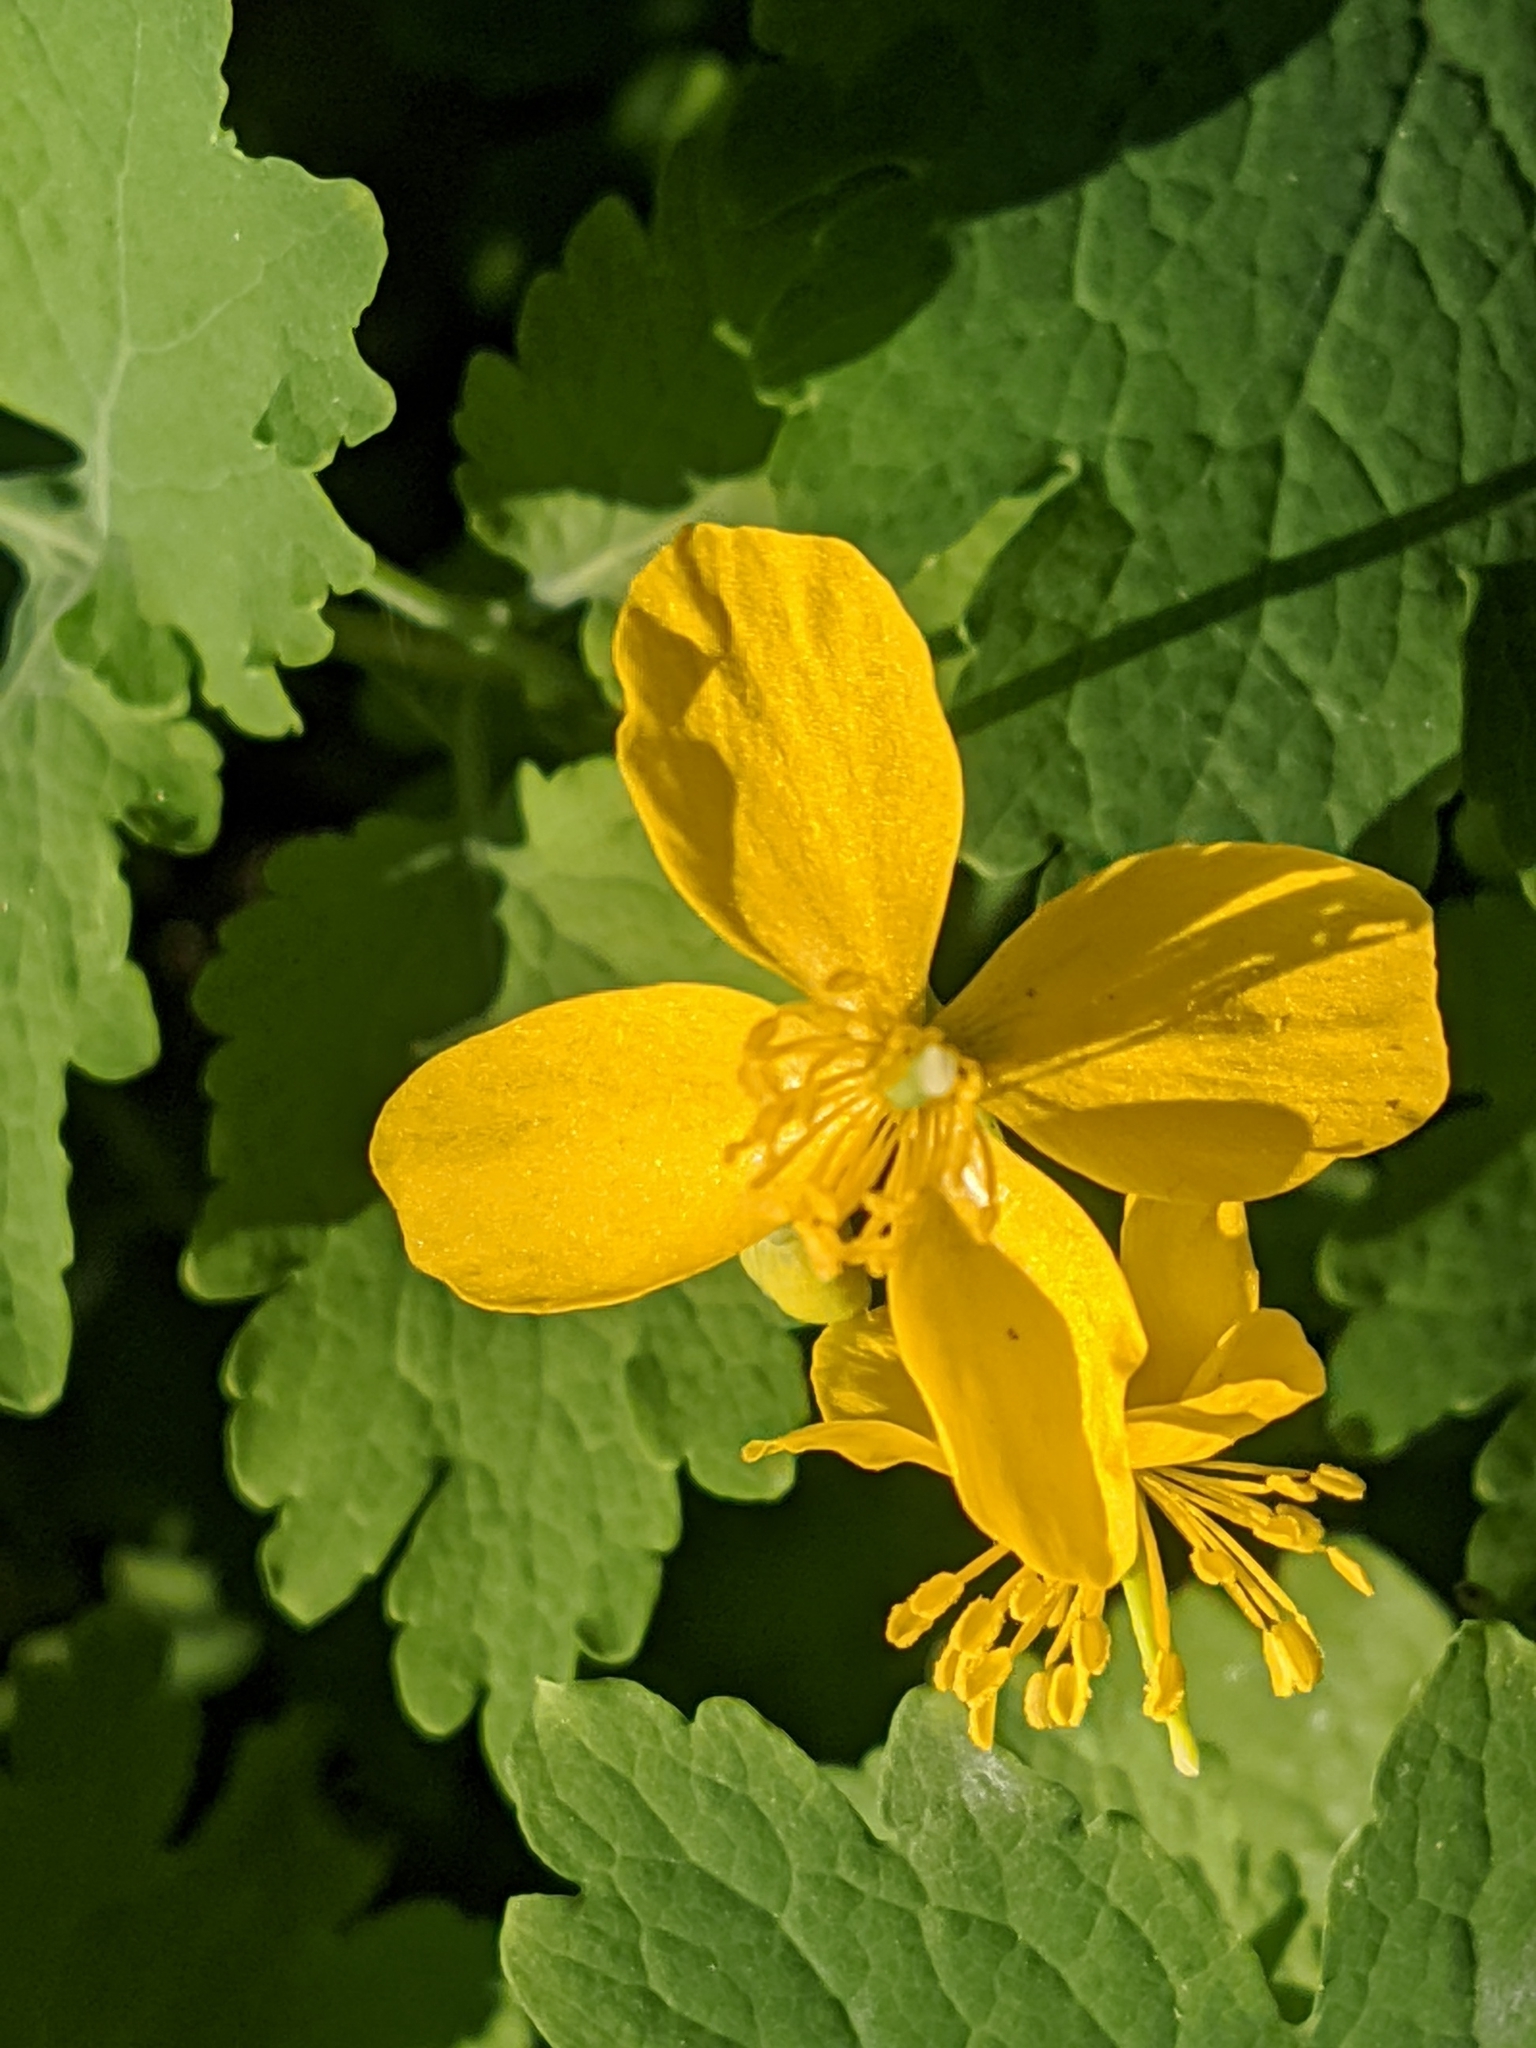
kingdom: Plantae
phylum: Tracheophyta
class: Magnoliopsida
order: Ranunculales
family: Papaveraceae
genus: Chelidonium
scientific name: Chelidonium majus
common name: Greater celandine
